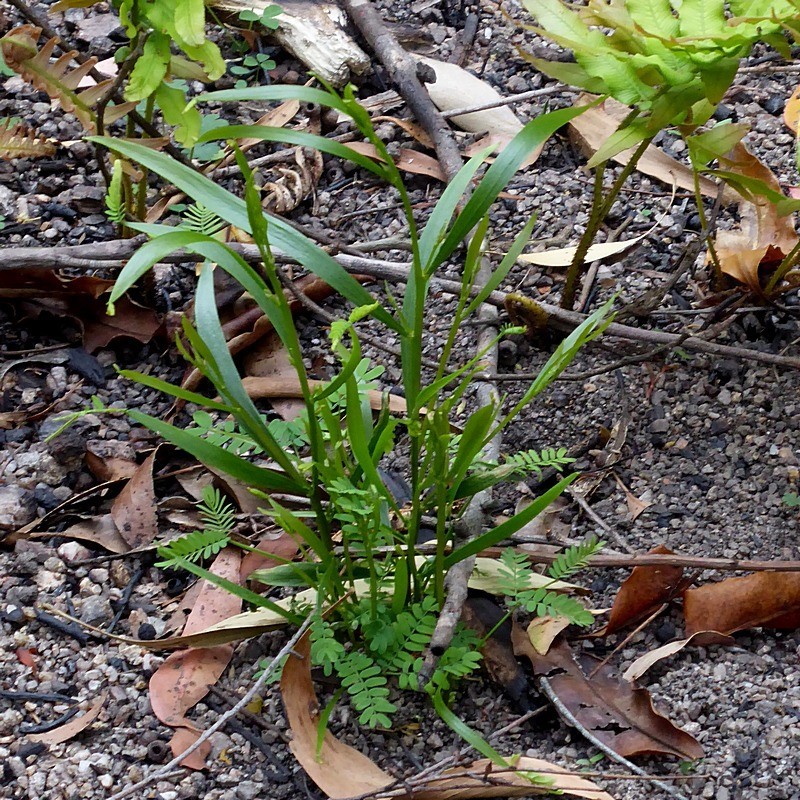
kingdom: Plantae
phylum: Tracheophyta
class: Magnoliopsida
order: Fabales
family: Fabaceae
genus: Acacia
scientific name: Acacia implexa
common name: Black wattle
